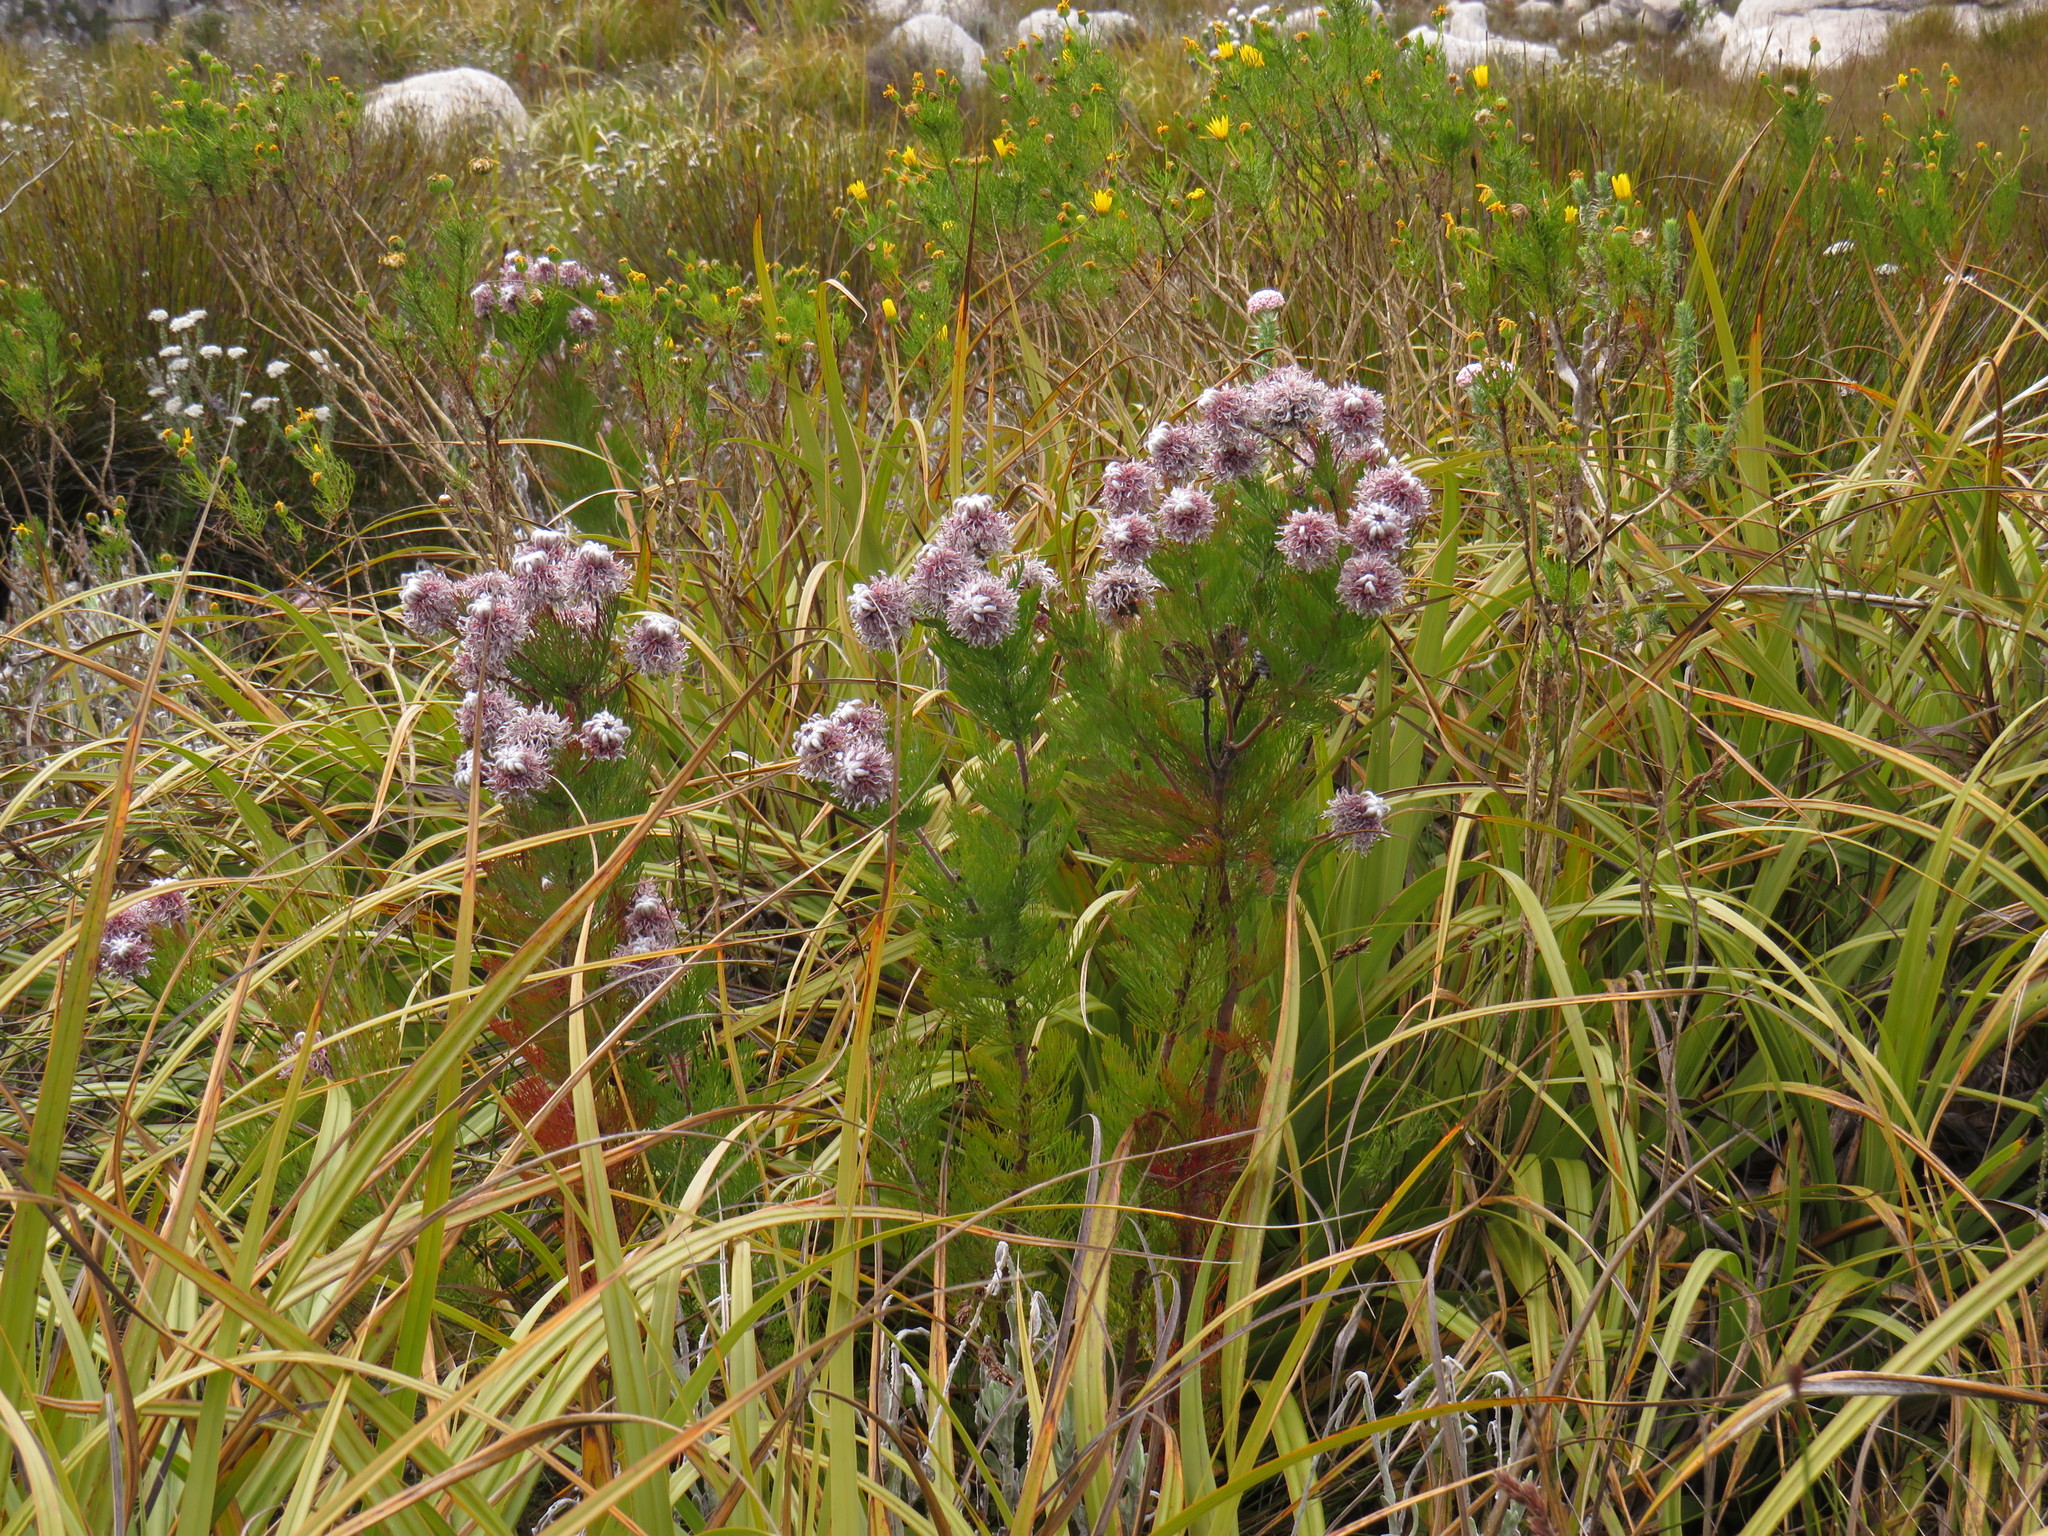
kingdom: Plantae
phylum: Tracheophyta
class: Magnoliopsida
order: Proteales
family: Proteaceae
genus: Serruria
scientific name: Serruria acrocarpa
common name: Common rootstock spiderhead
